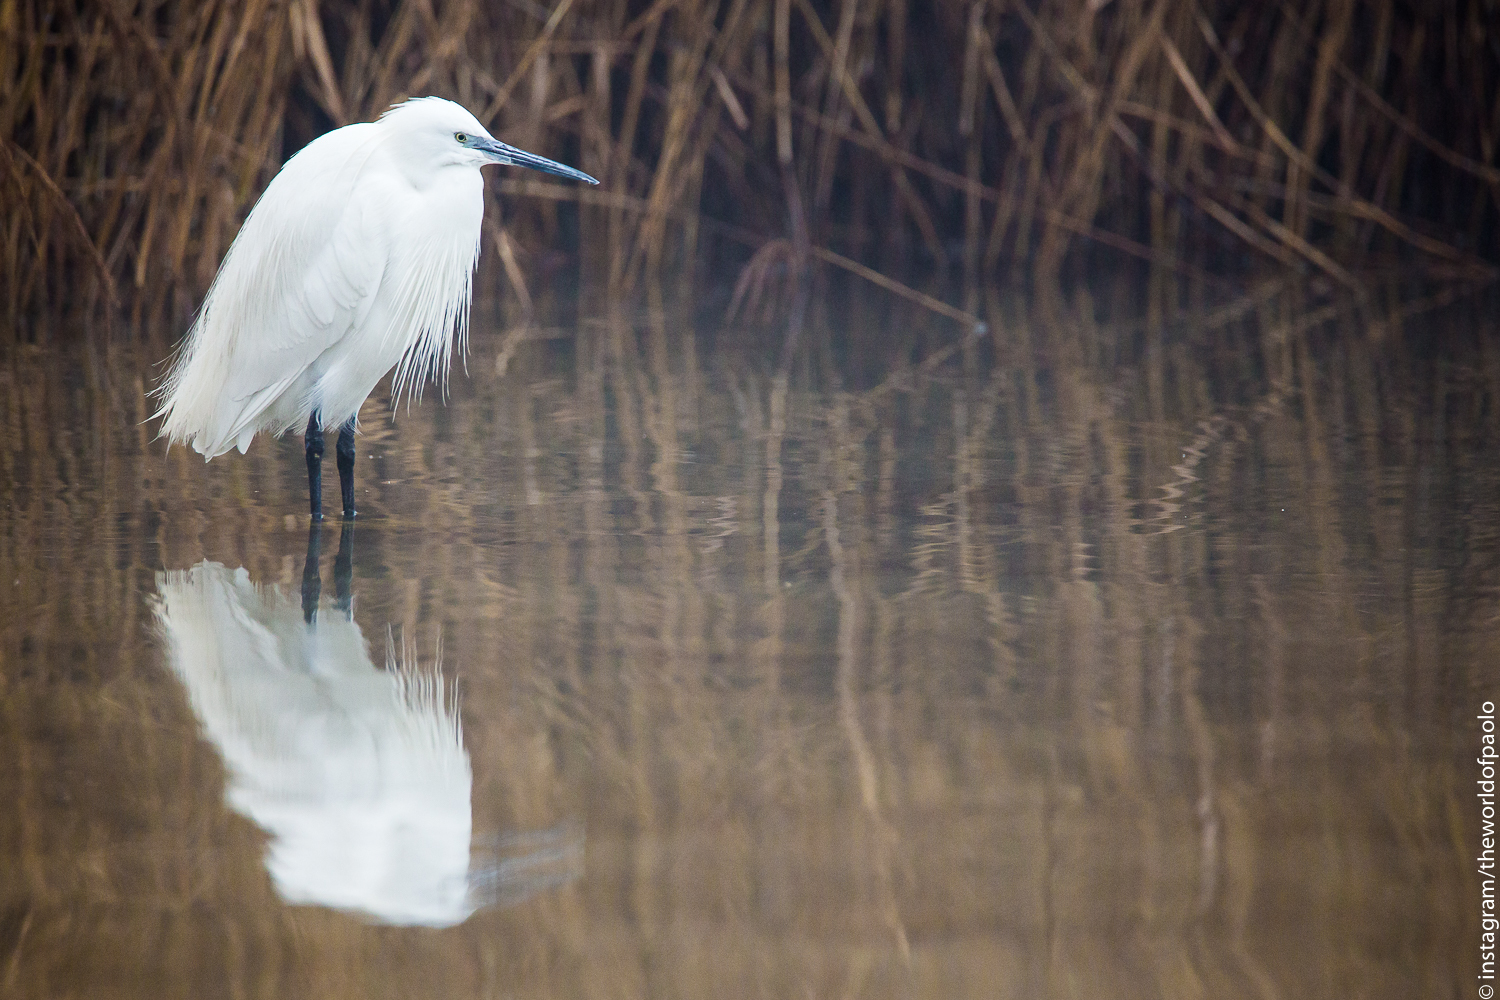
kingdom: Animalia
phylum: Chordata
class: Aves
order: Pelecaniformes
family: Ardeidae
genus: Egretta
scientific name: Egretta garzetta
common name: Little egret
